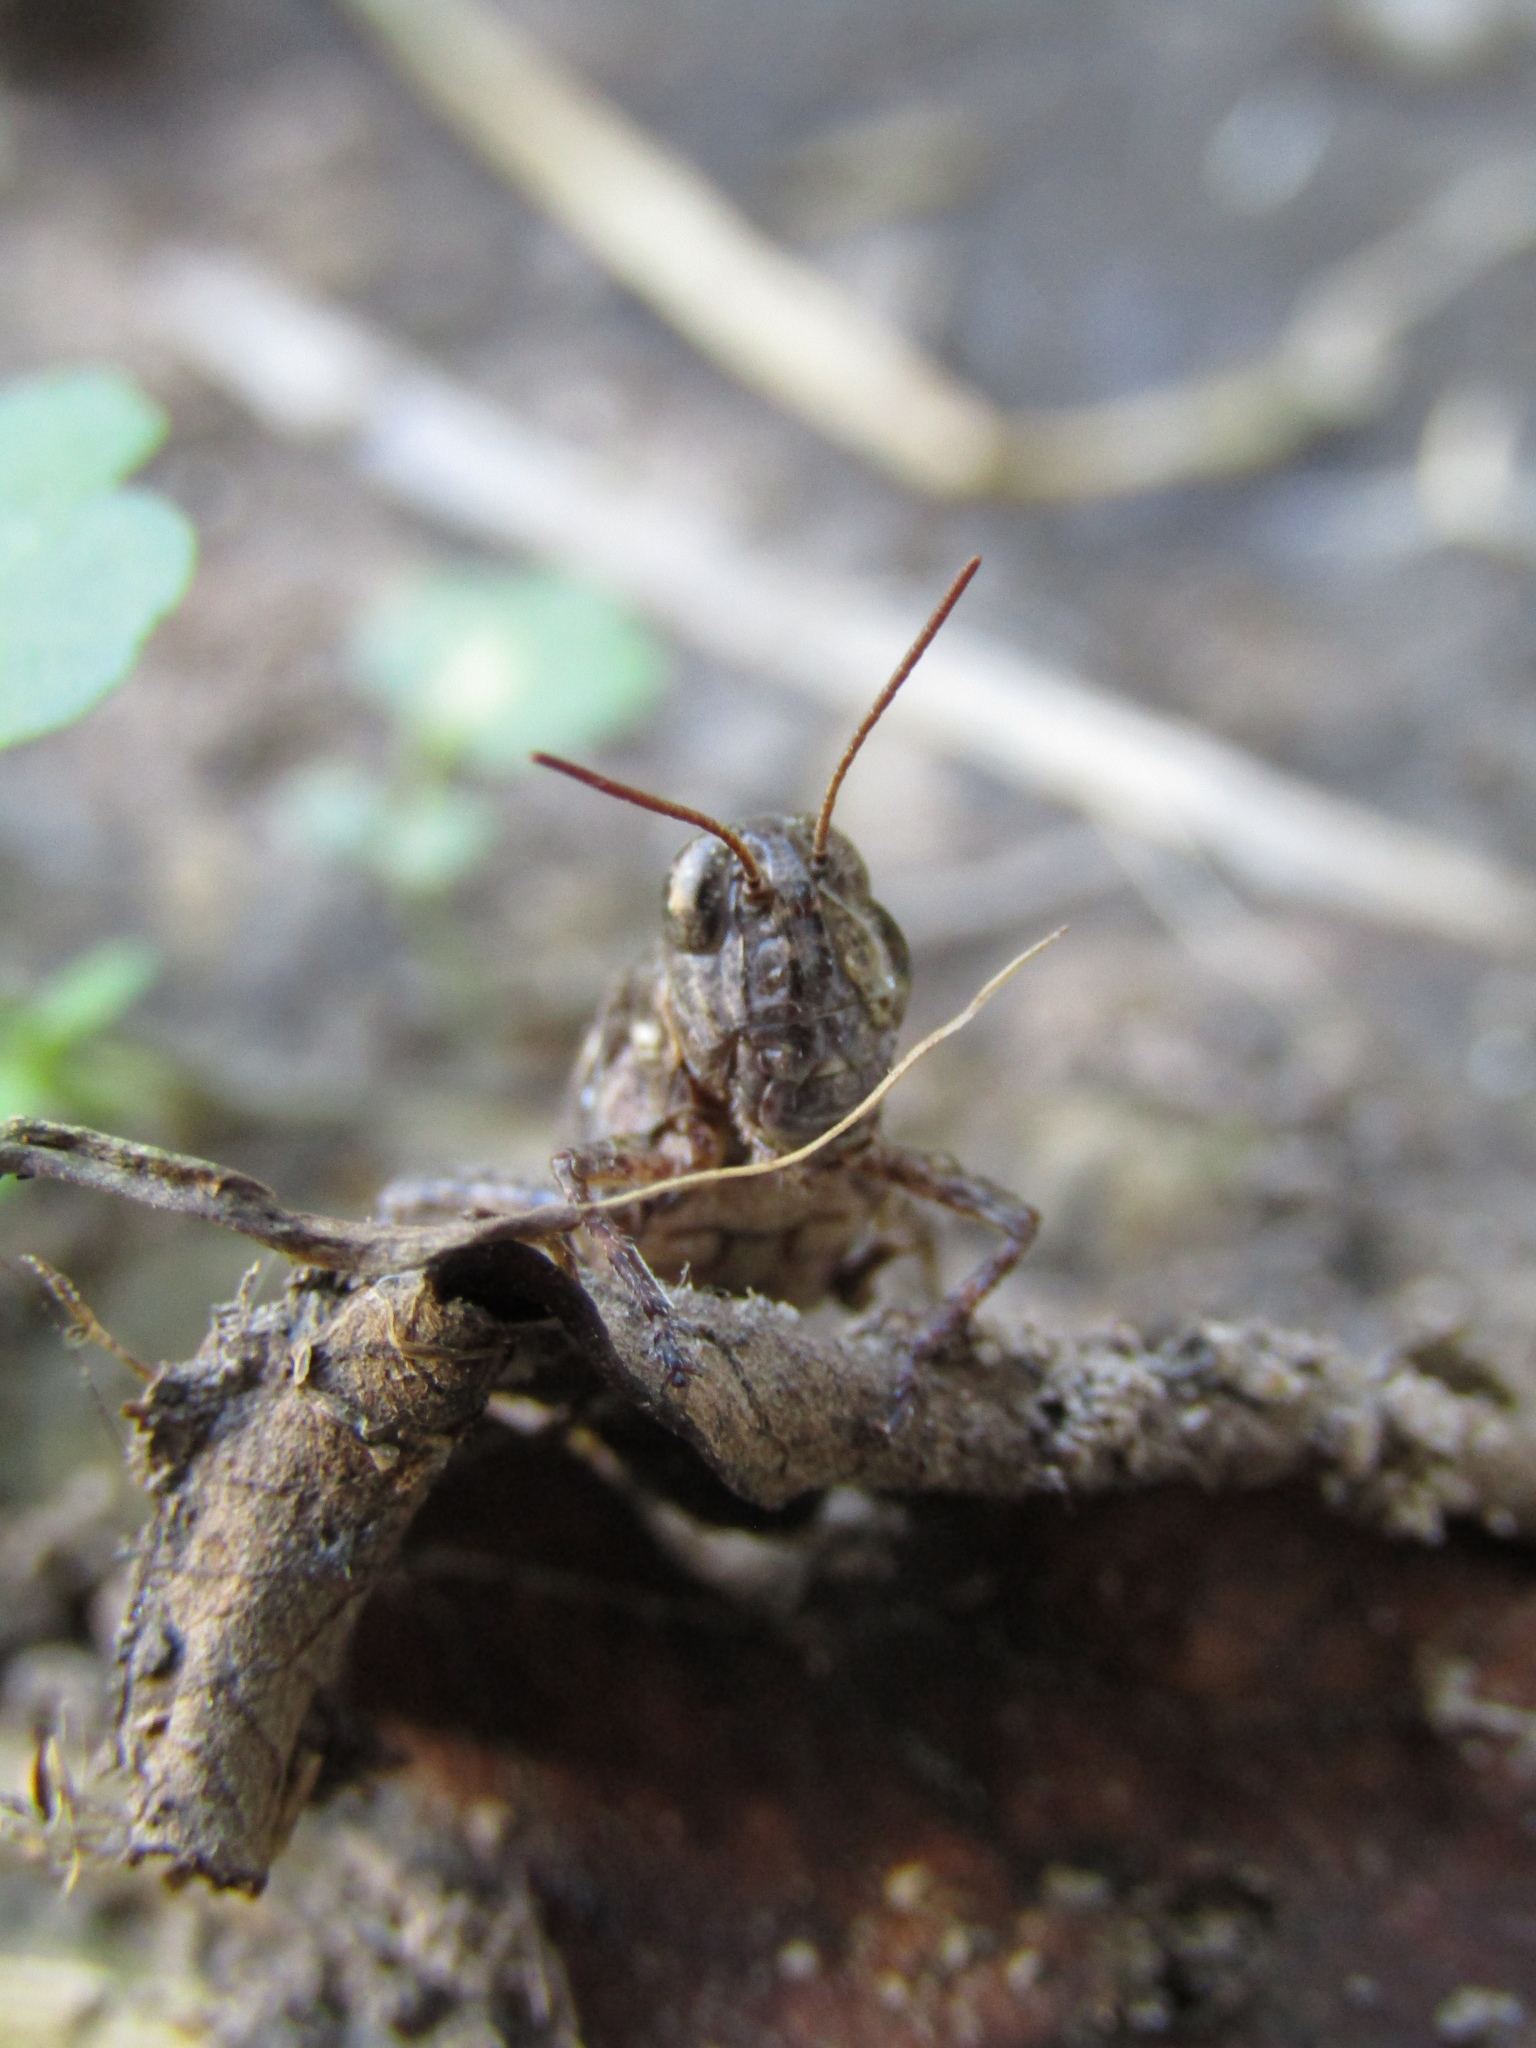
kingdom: Animalia
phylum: Arthropoda
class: Insecta
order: Orthoptera
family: Acrididae
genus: Baeacris
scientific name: Baeacris
